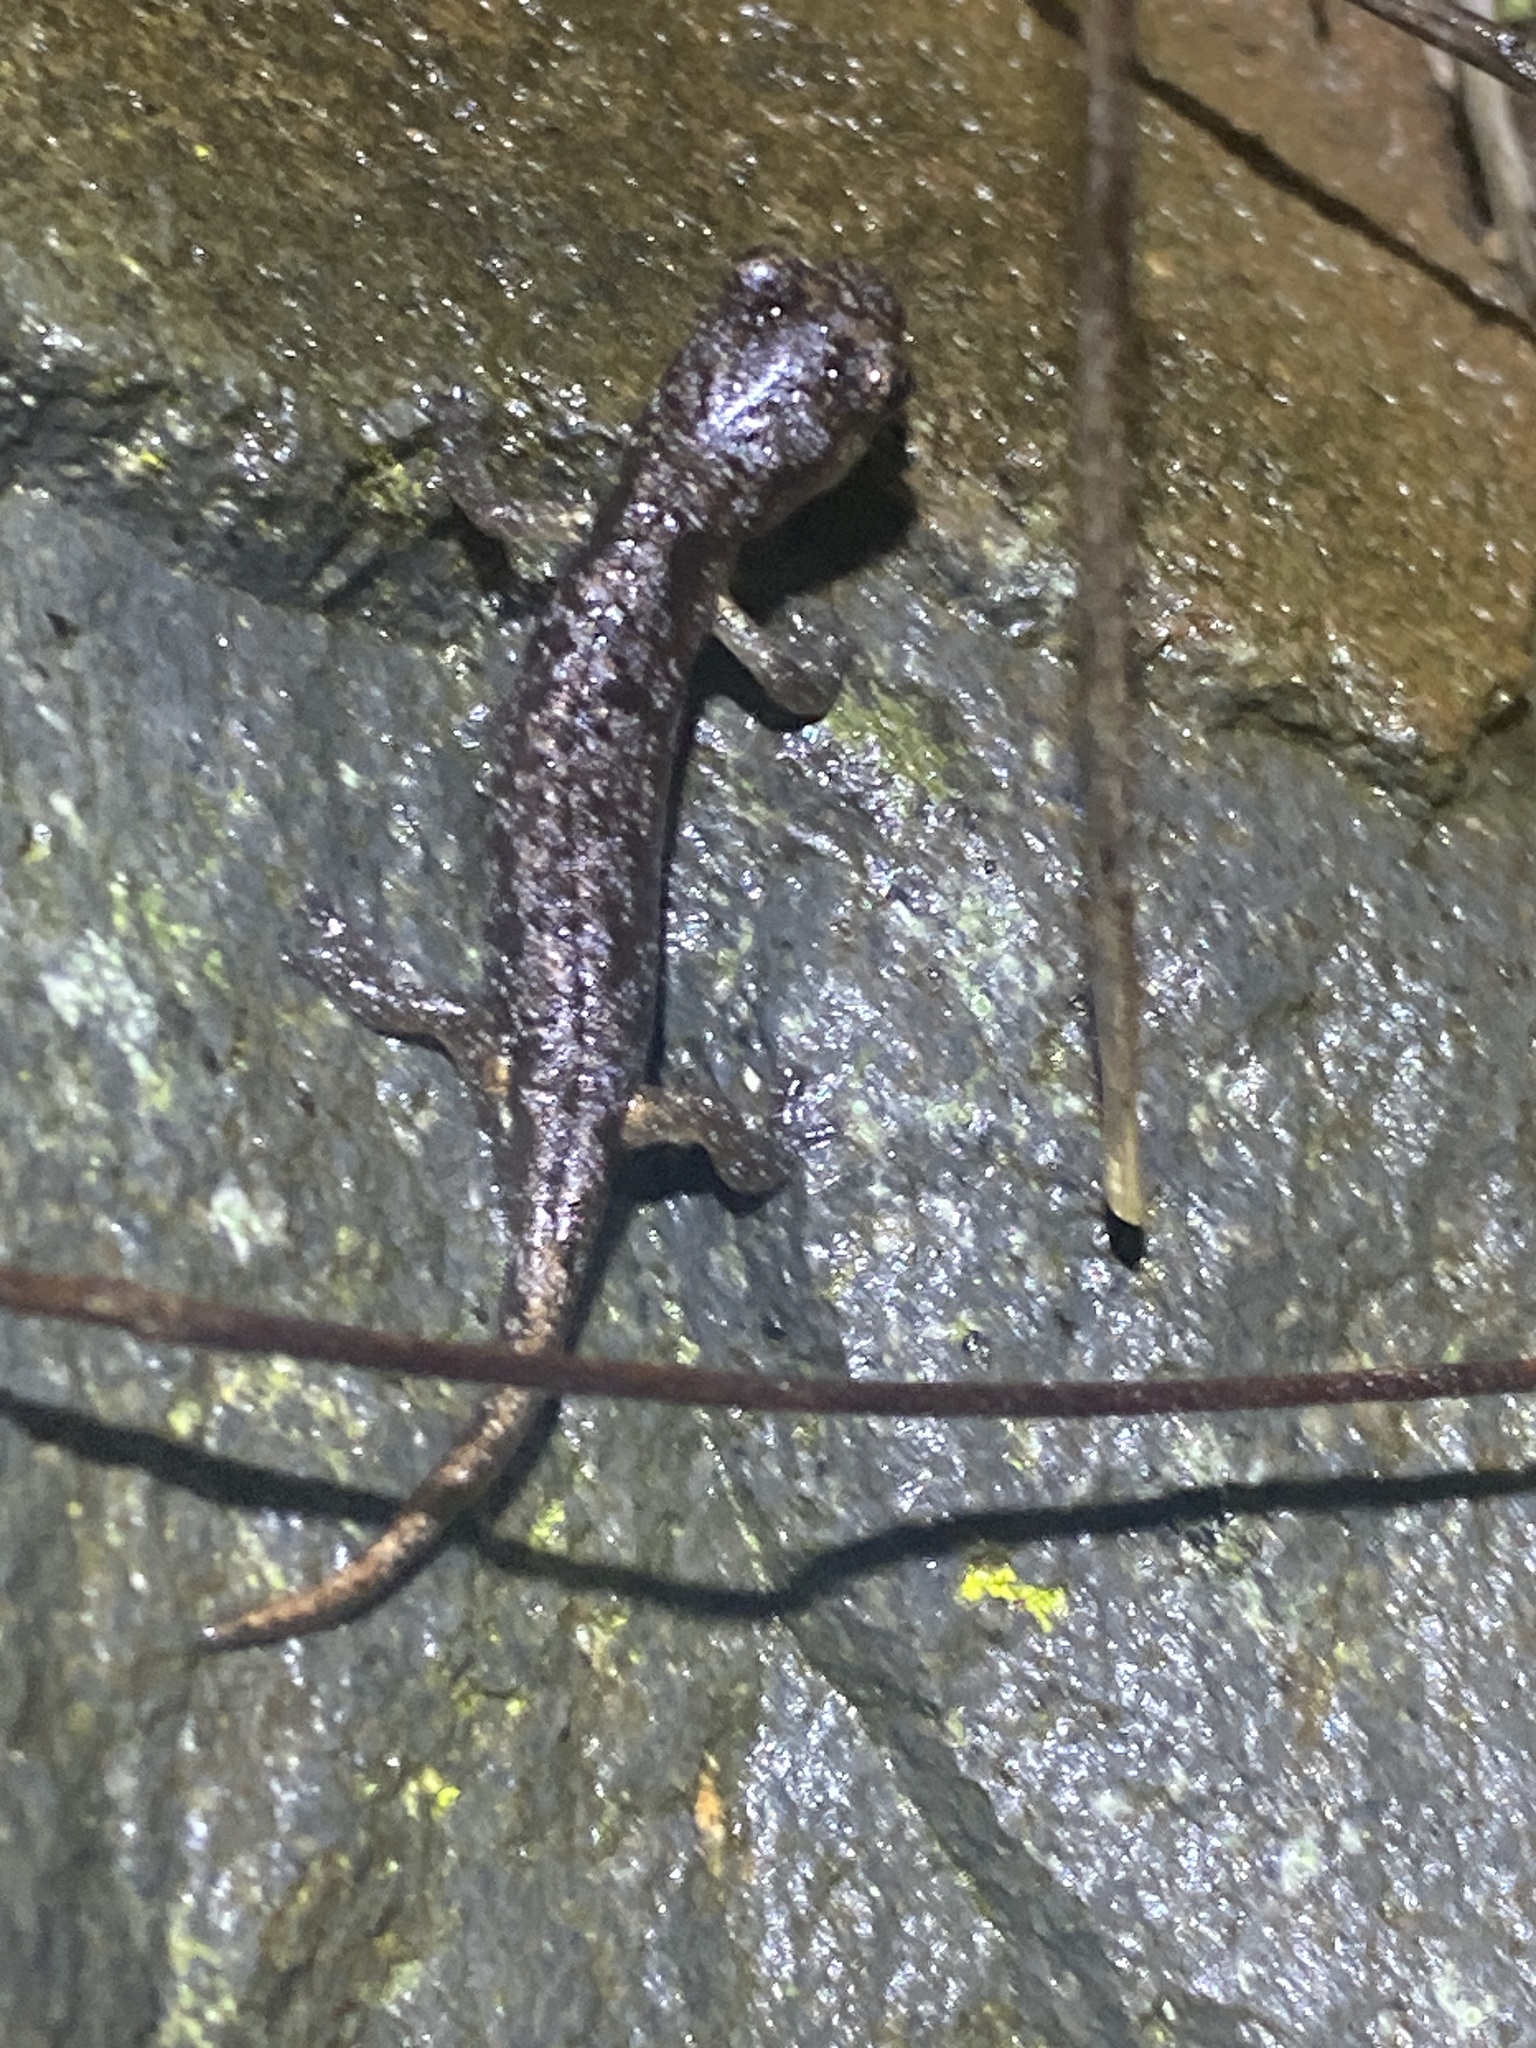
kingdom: Animalia
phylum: Chordata
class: Amphibia
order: Caudata
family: Plethodontidae
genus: Aneides
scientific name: Aneides lugubris
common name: Arboreal salamander
